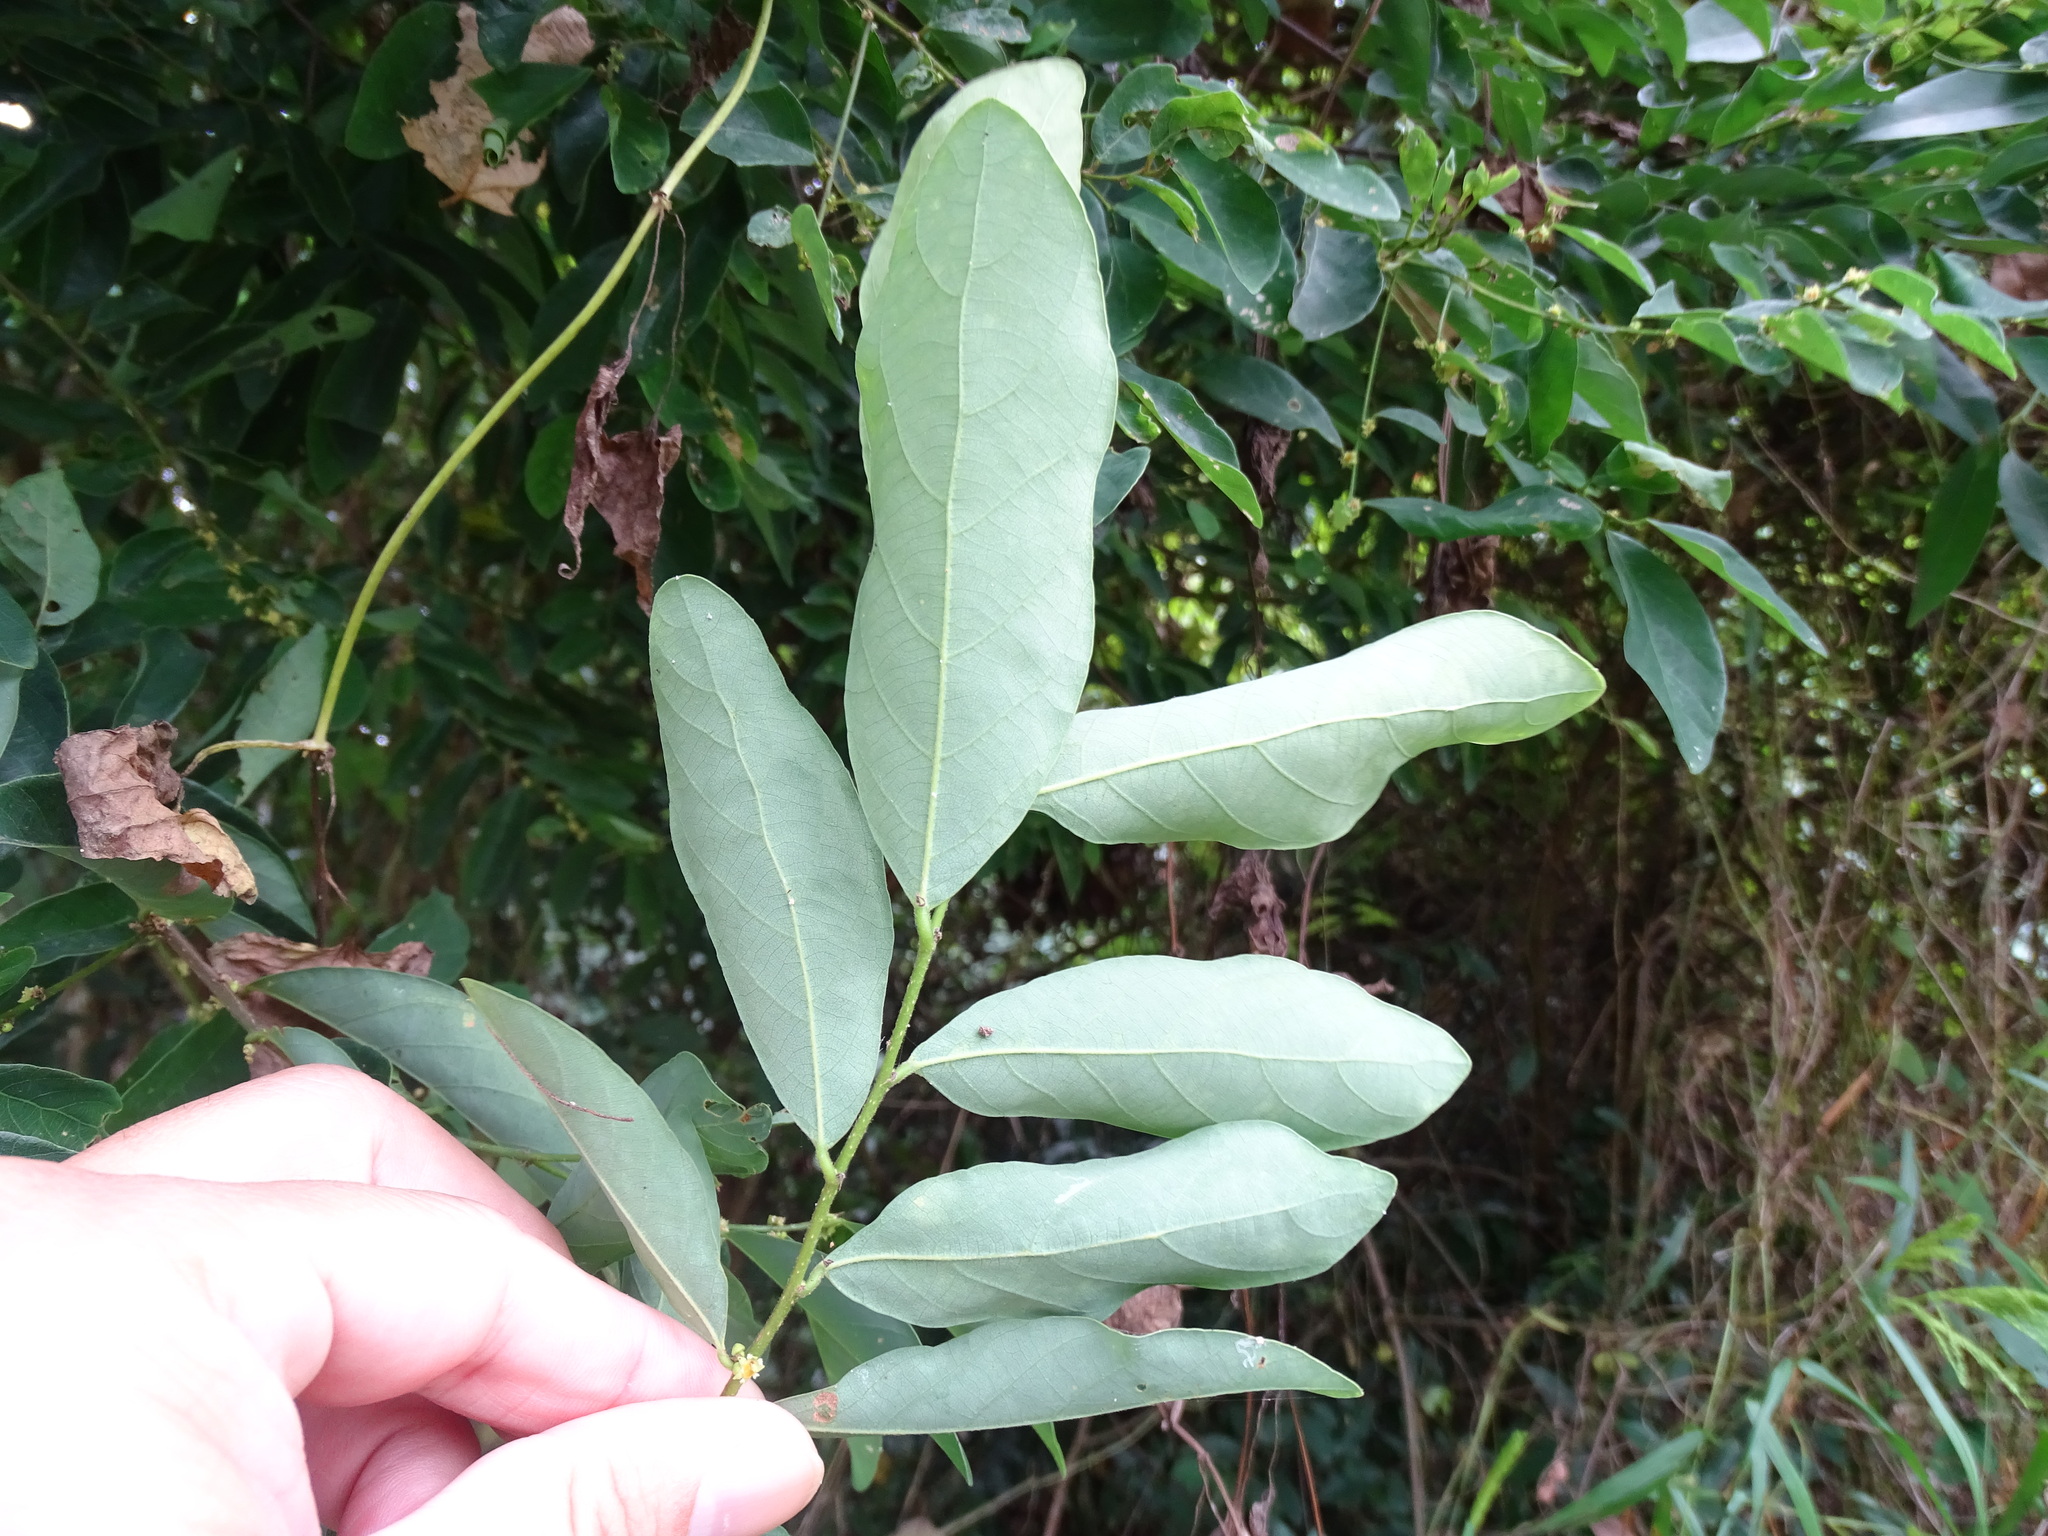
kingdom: Plantae
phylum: Tracheophyta
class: Magnoliopsida
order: Malpighiales
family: Phyllanthaceae
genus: Bridelia
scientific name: Bridelia tomentosa
